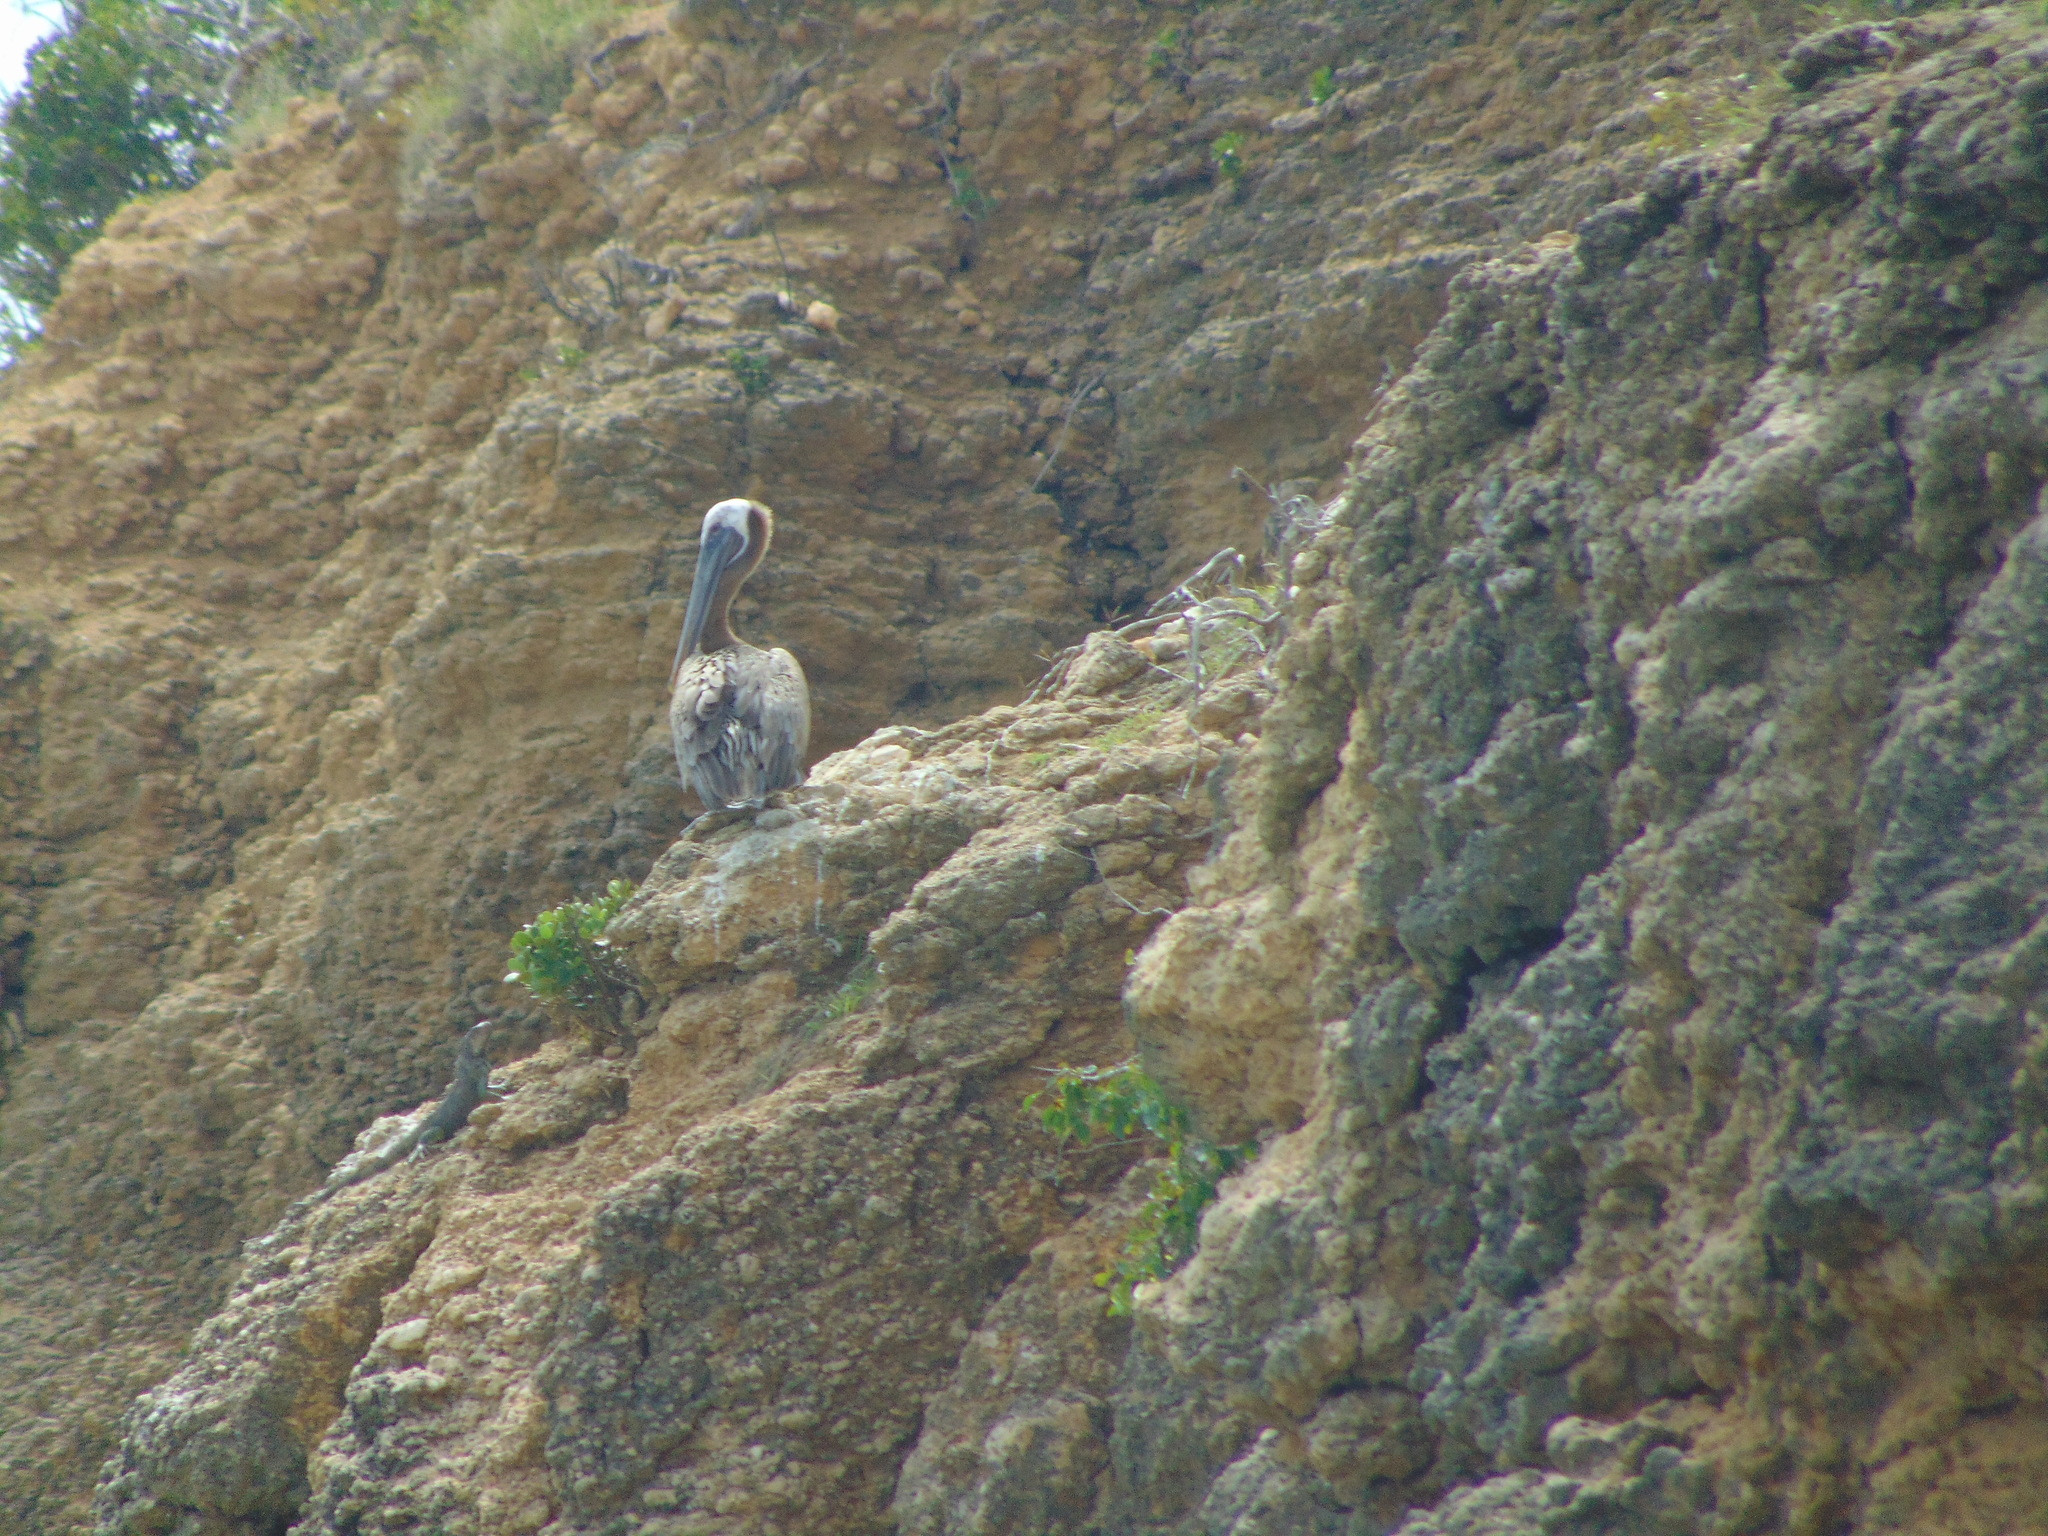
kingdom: Animalia
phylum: Chordata
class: Aves
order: Pelecaniformes
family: Pelecanidae
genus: Pelecanus
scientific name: Pelecanus occidentalis
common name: Brown pelican
